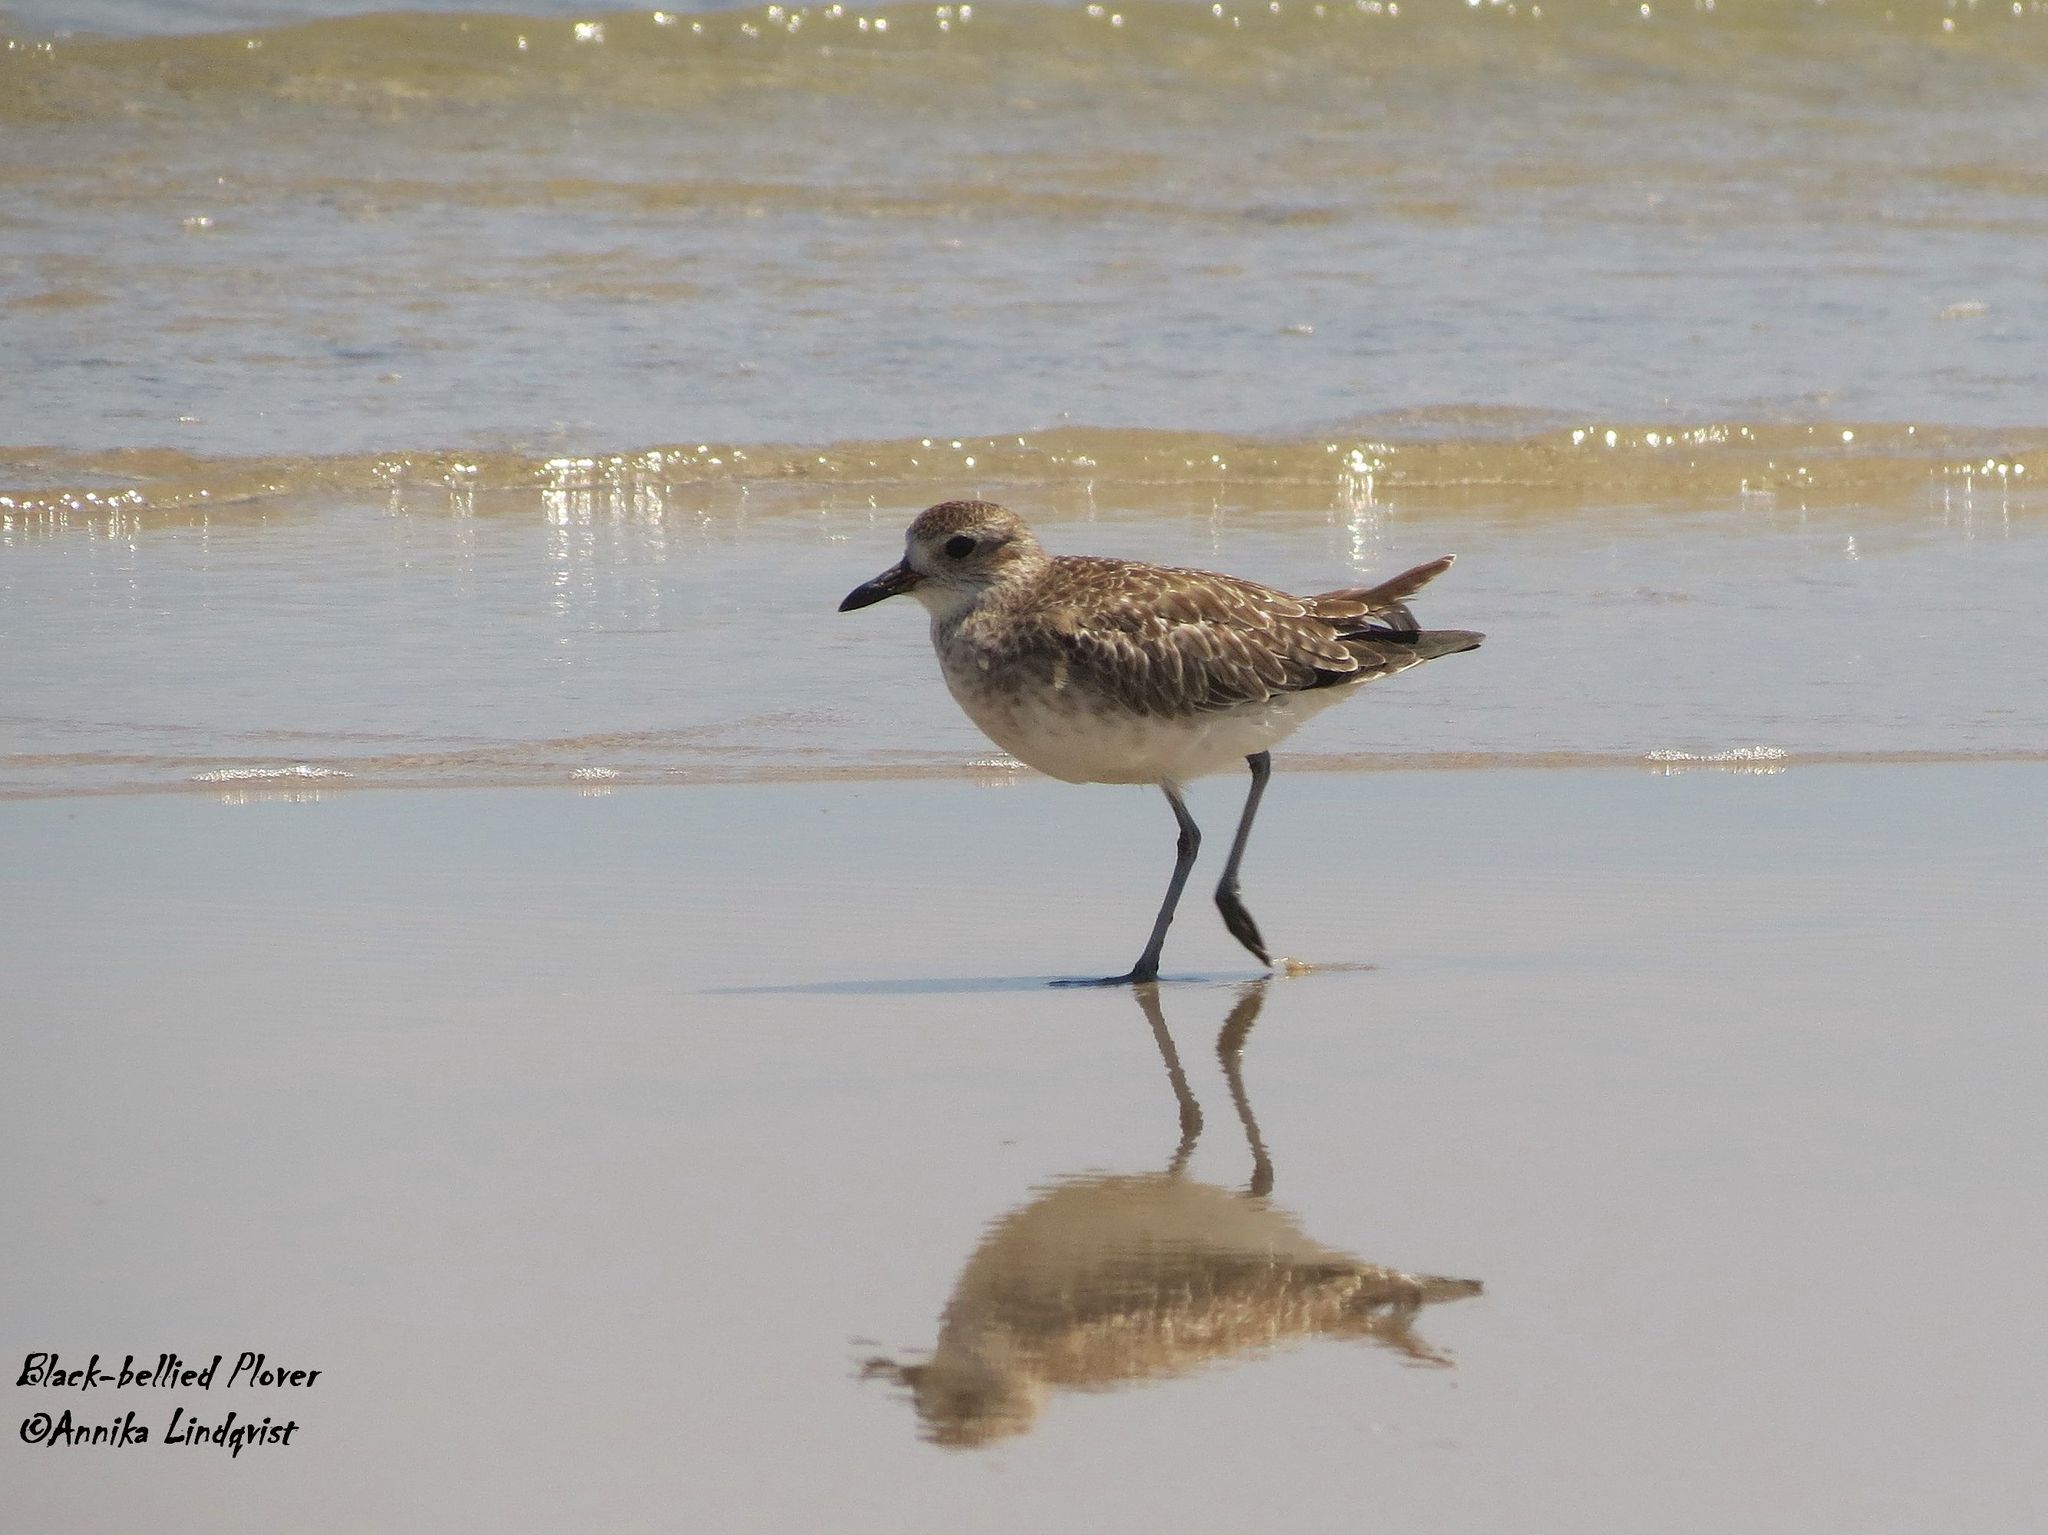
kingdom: Animalia
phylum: Chordata
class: Aves
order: Charadriiformes
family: Charadriidae
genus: Pluvialis
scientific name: Pluvialis squatarola
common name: Grey plover
